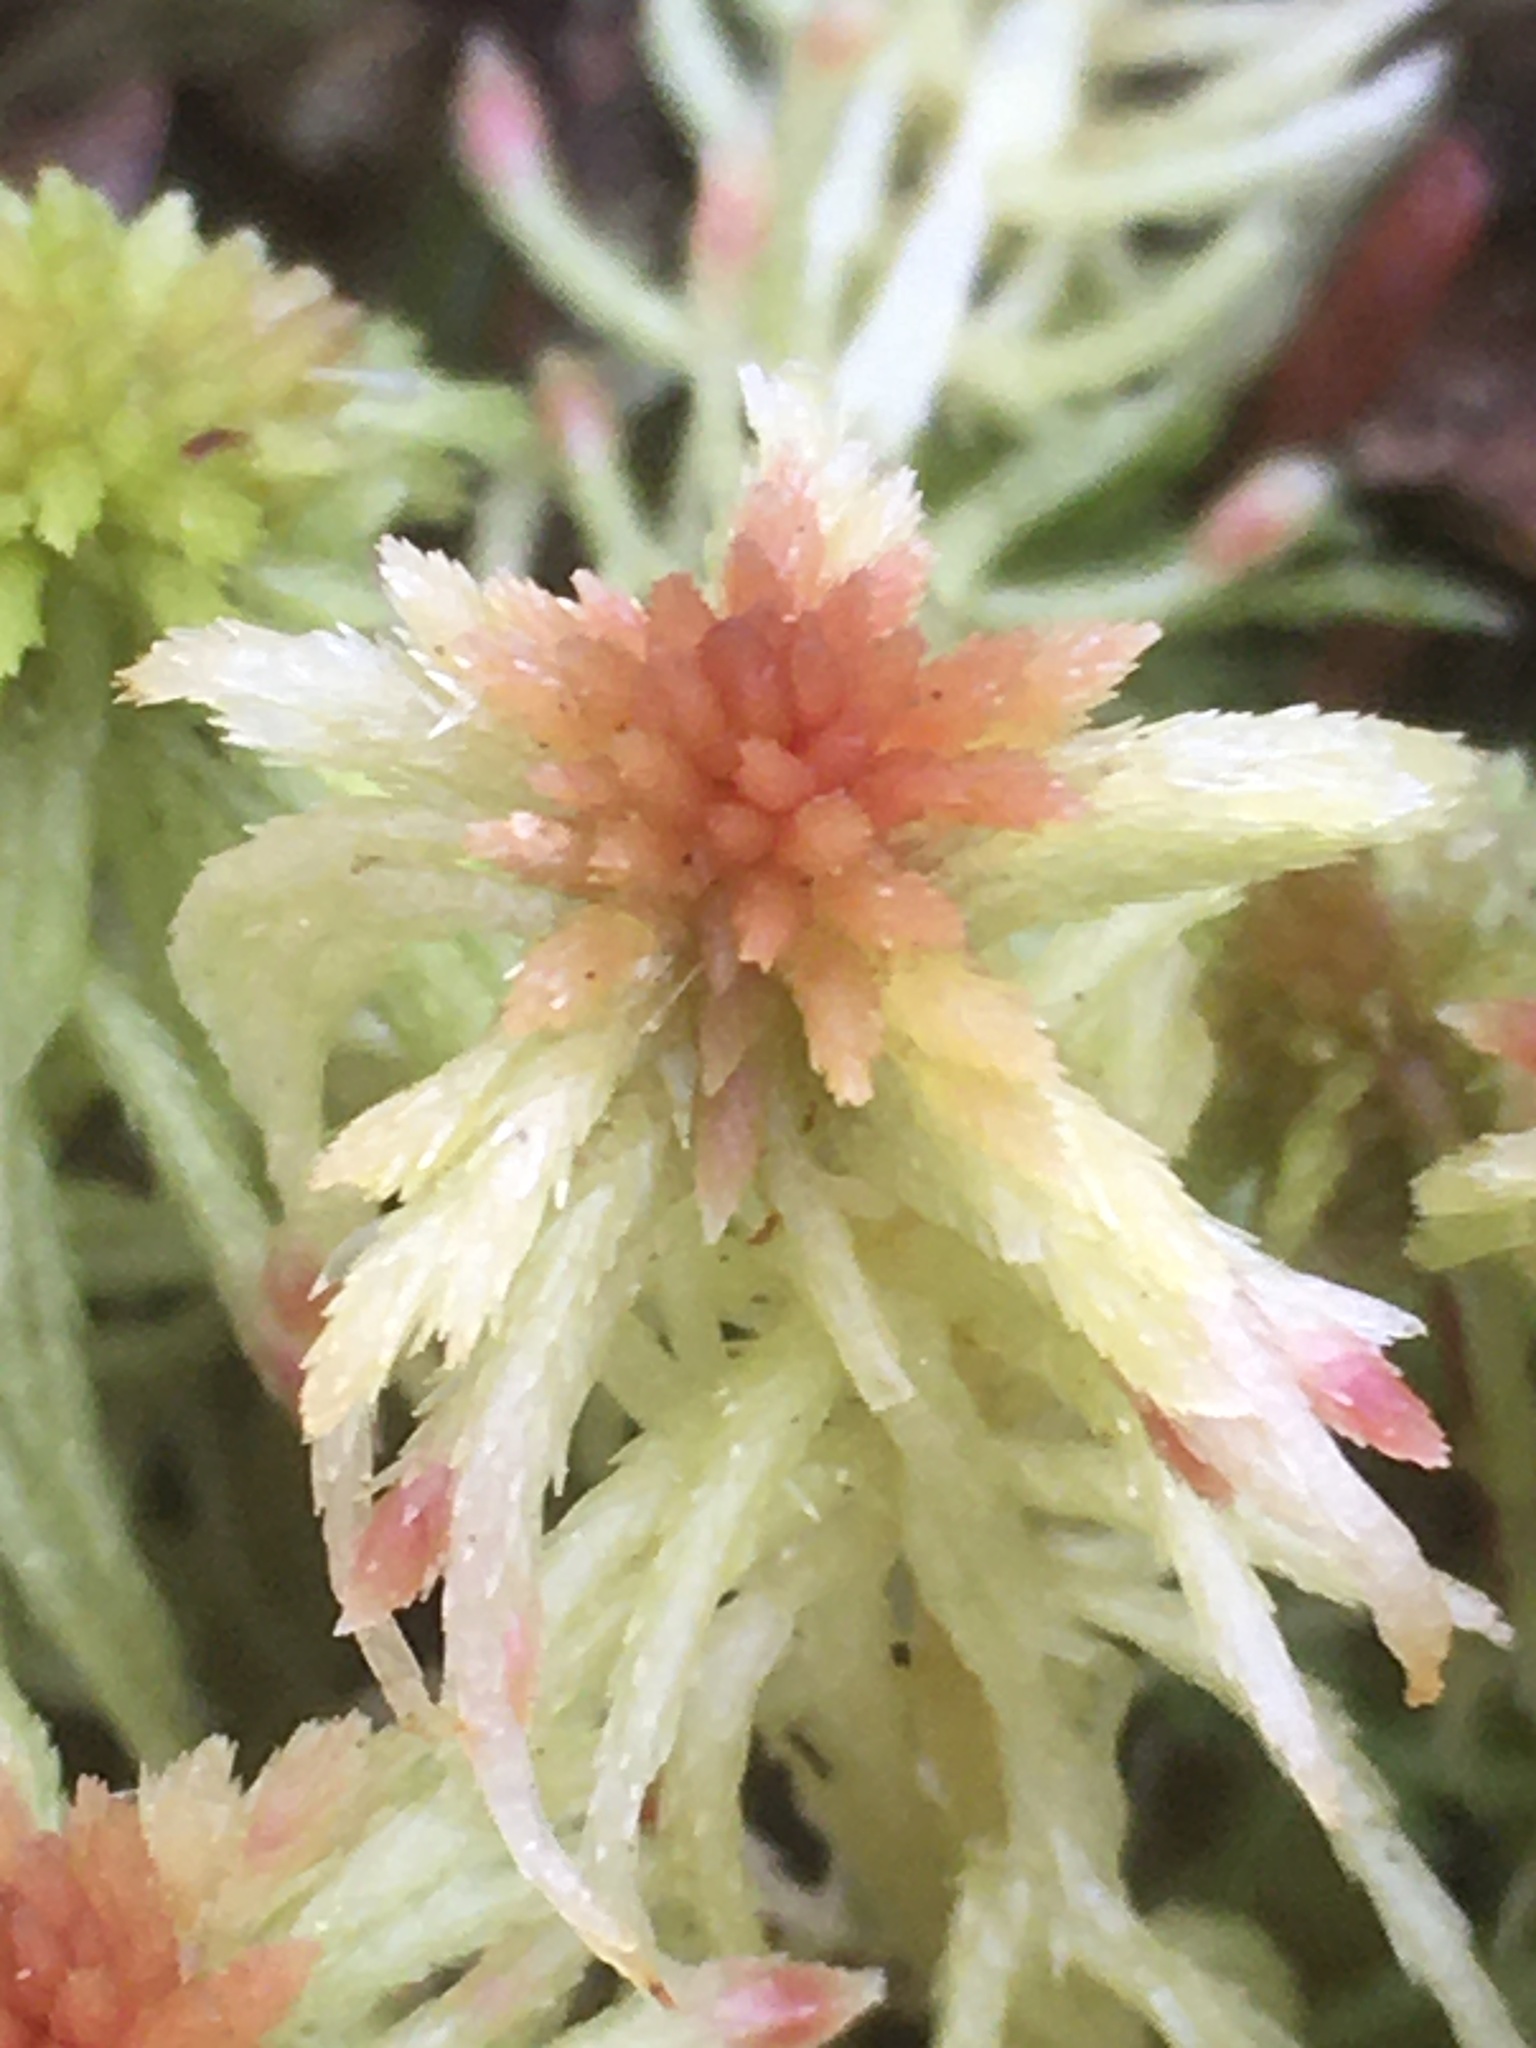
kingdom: Plantae
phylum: Bryophyta
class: Sphagnopsida
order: Sphagnales
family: Sphagnaceae
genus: Sphagnum
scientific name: Sphagnum
